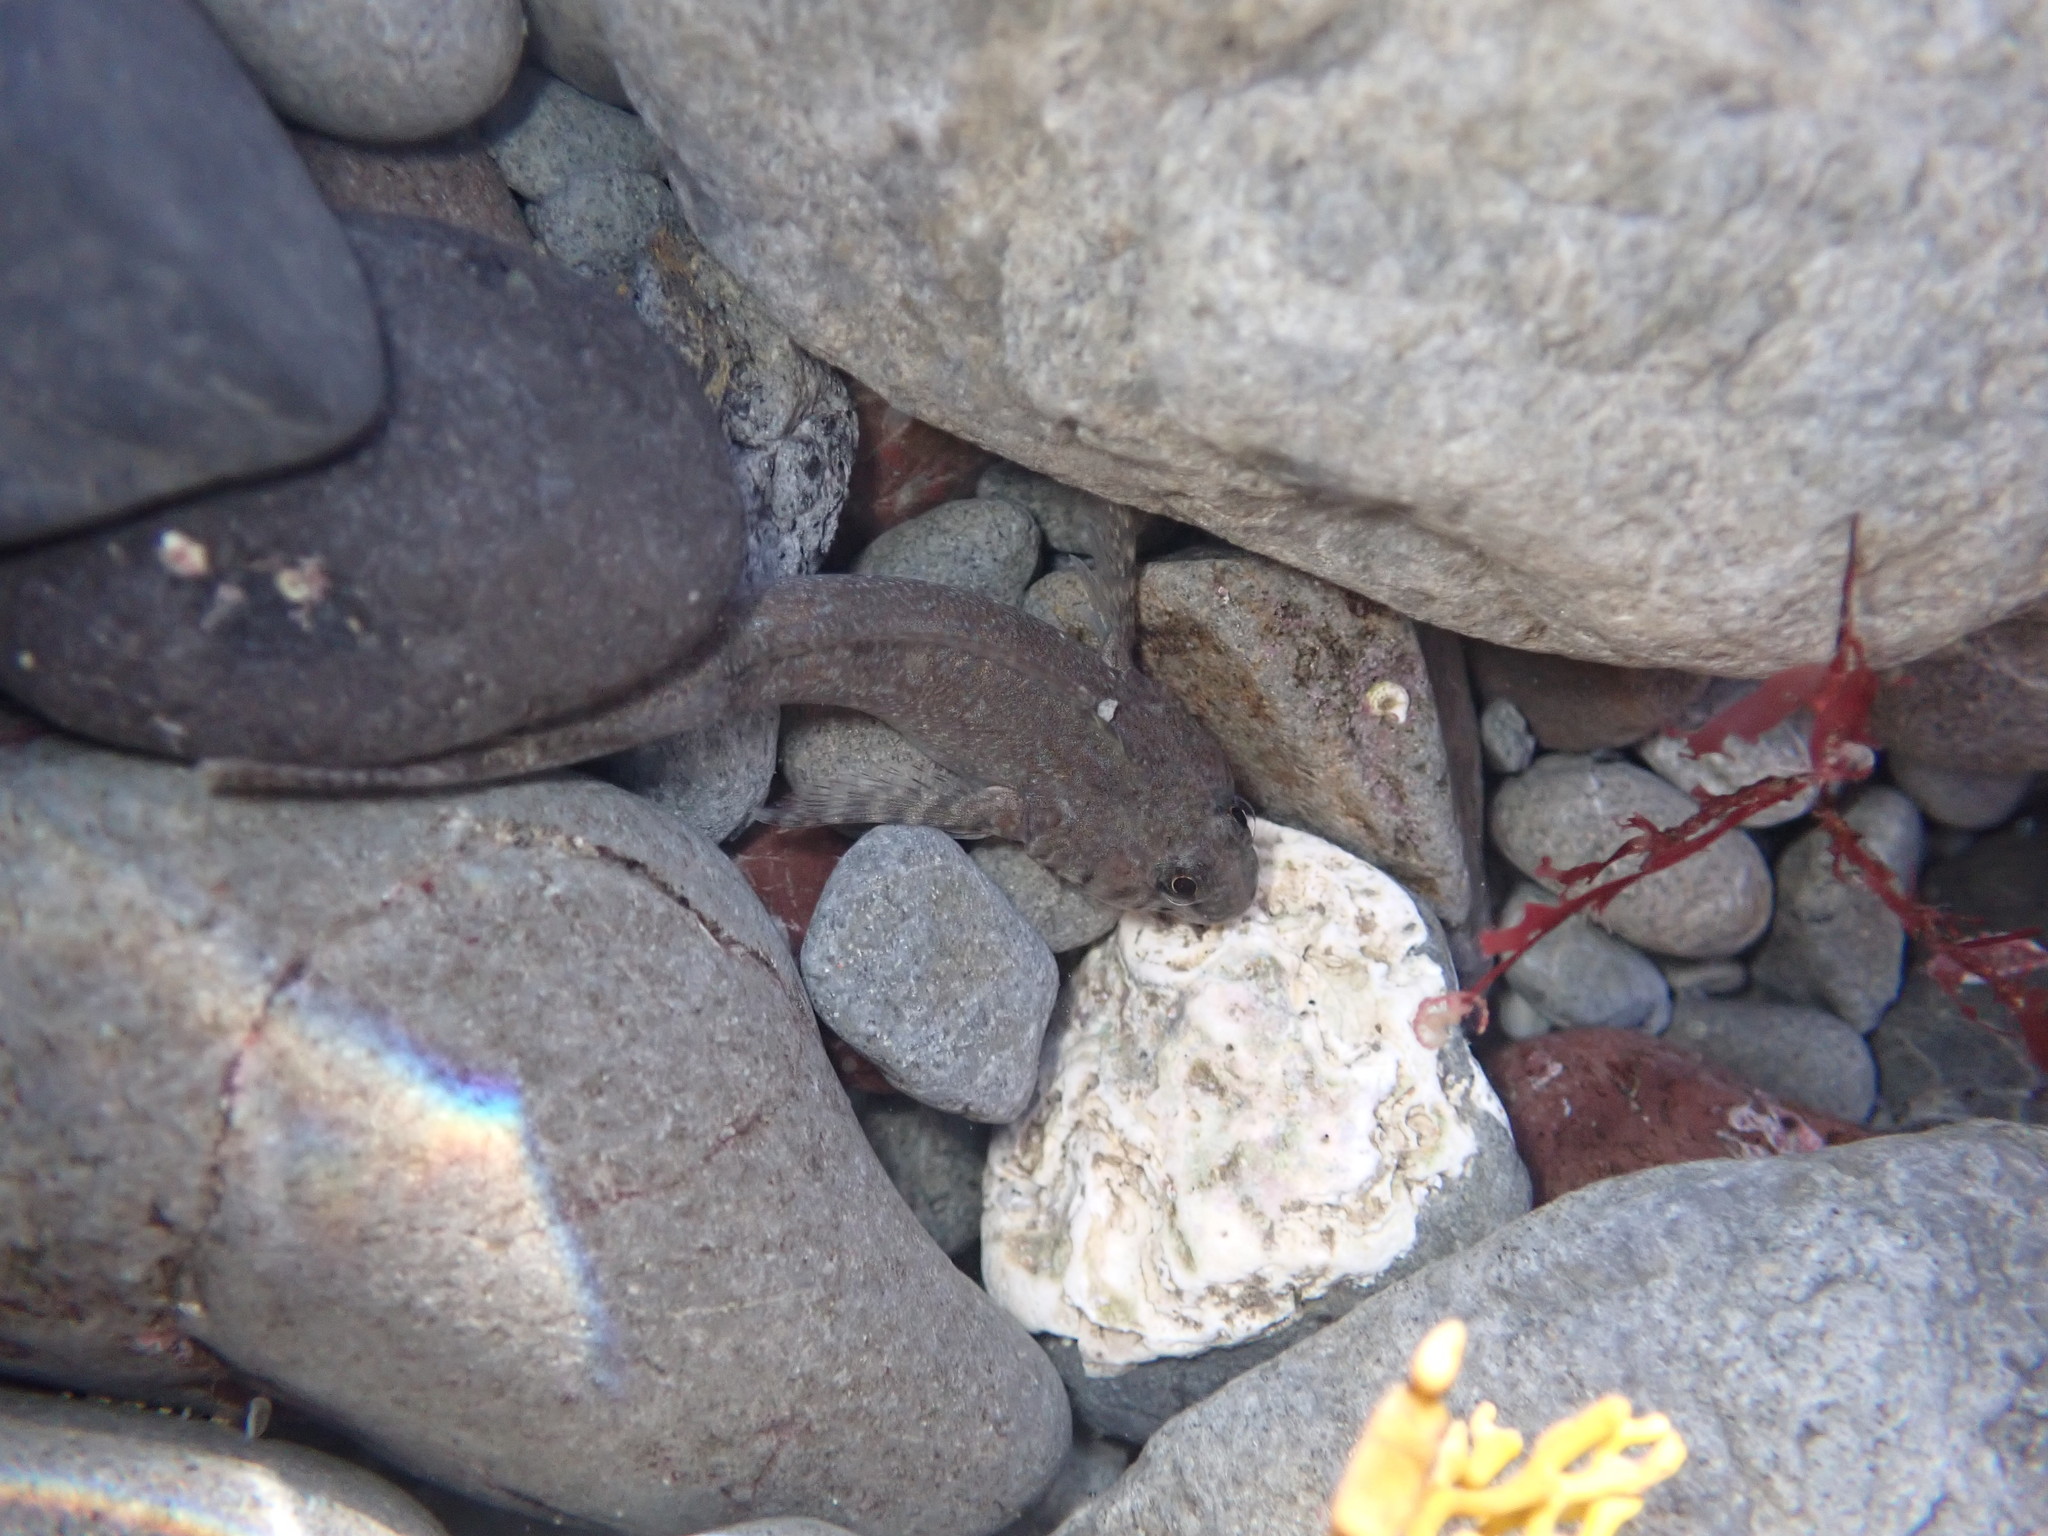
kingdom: Animalia
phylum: Chordata
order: Perciformes
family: Tripterygiidae
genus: Bellapiscis
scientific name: Bellapiscis medius
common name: Twister
